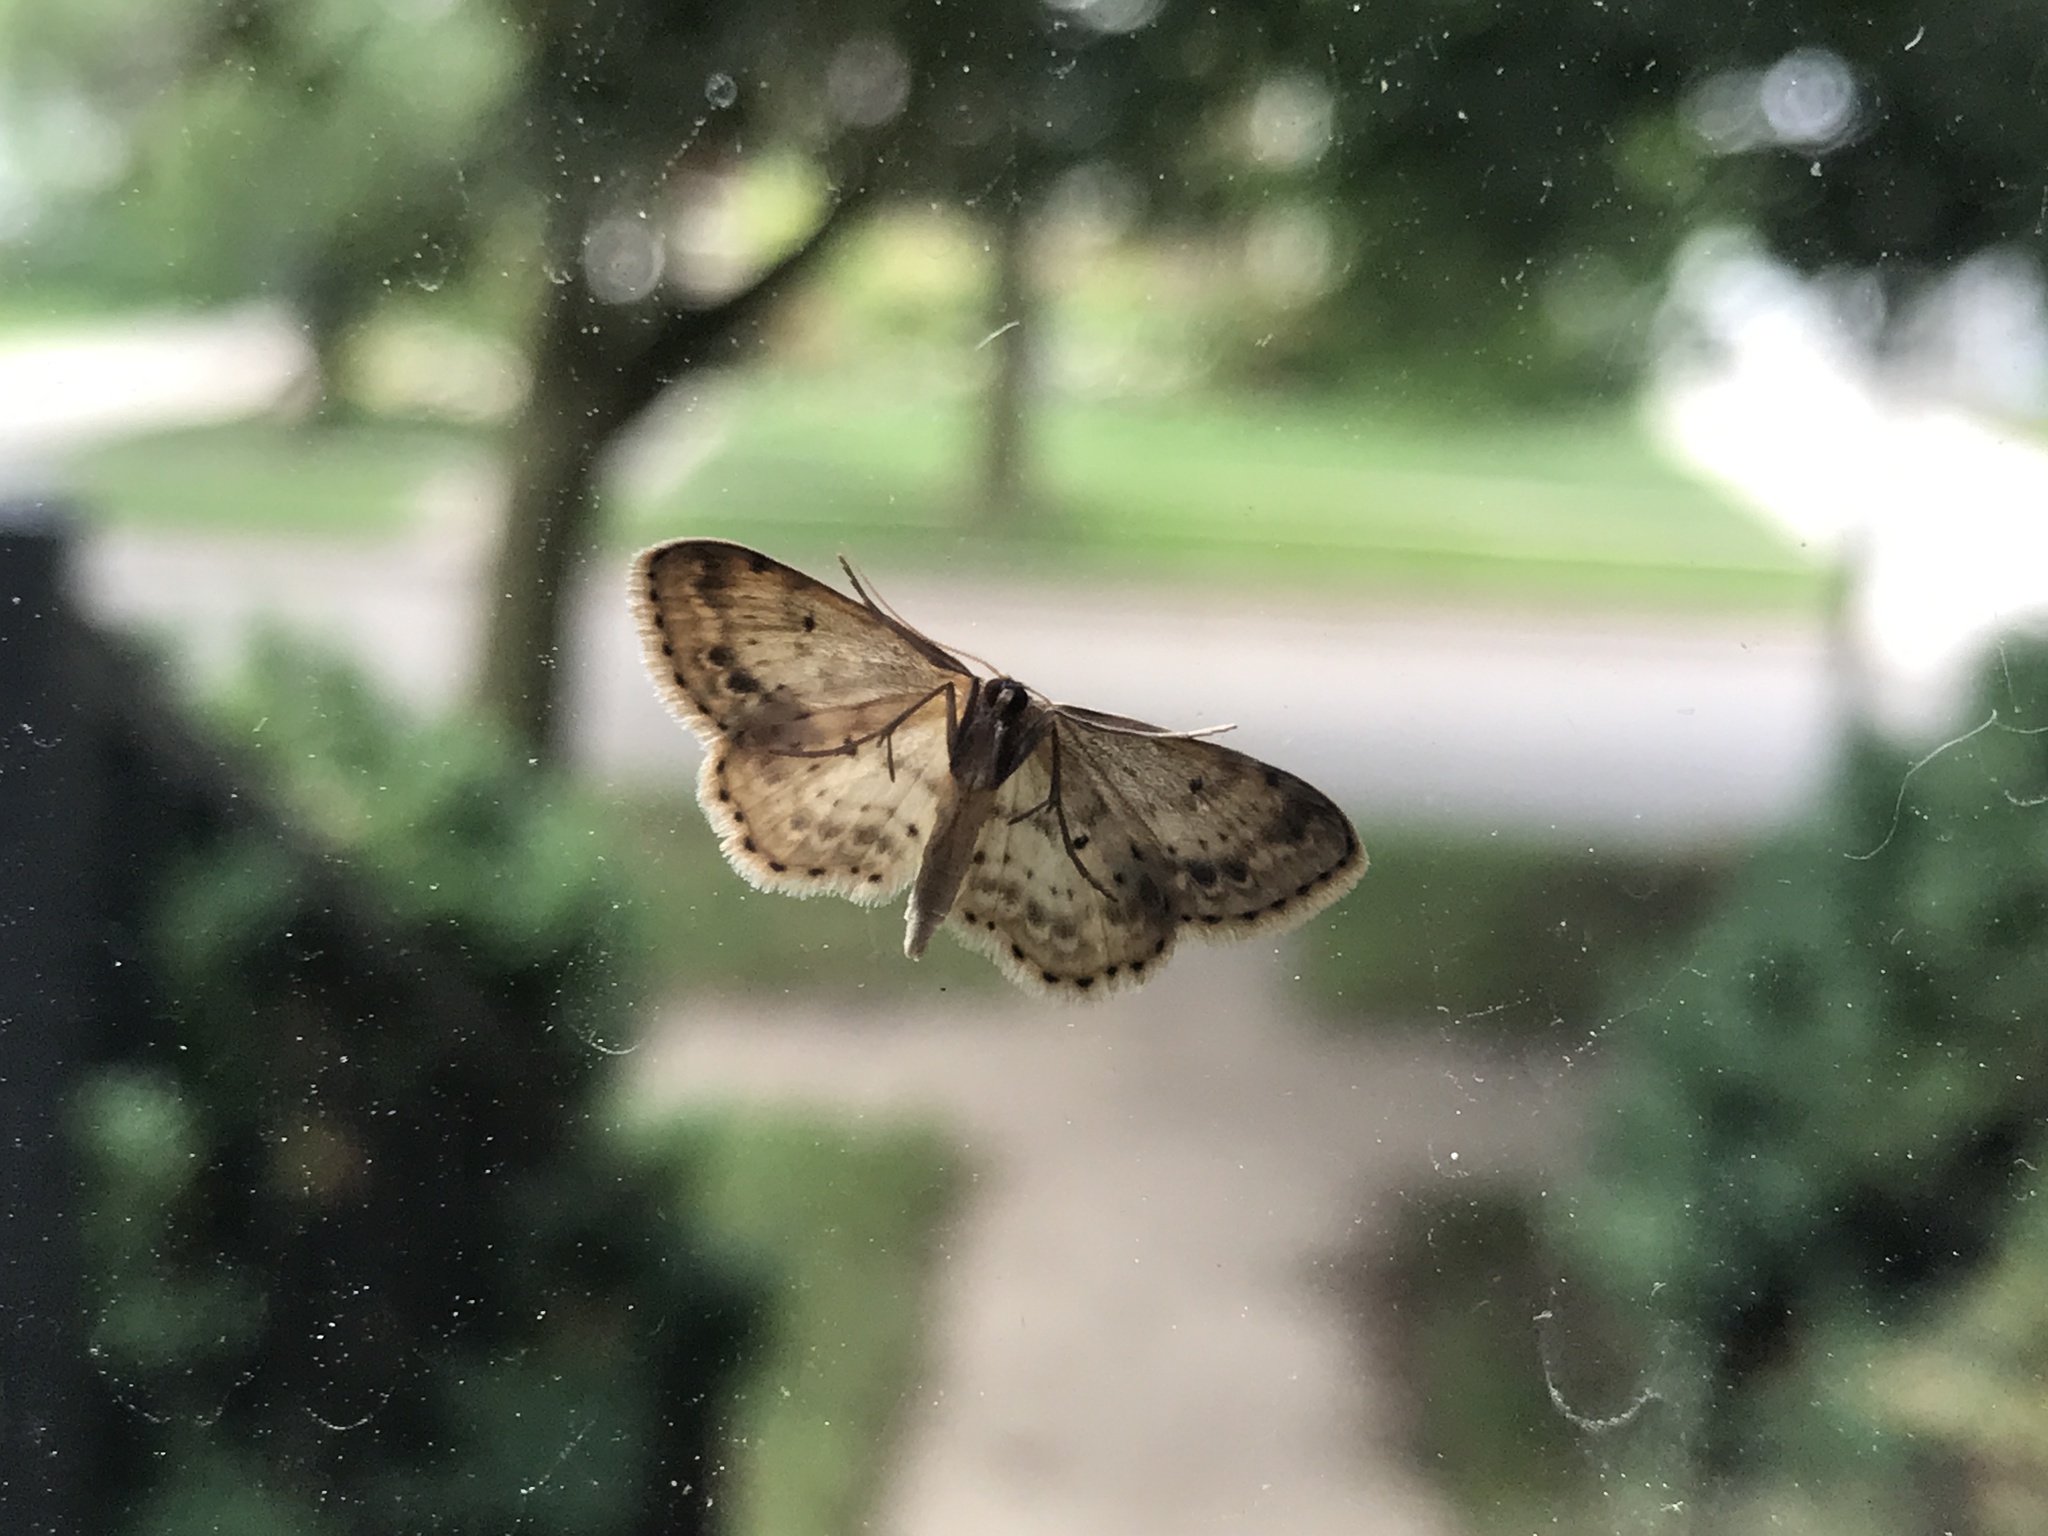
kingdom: Animalia
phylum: Arthropoda
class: Insecta
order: Lepidoptera
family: Geometridae
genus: Idaea
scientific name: Idaea dimidiata
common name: Single-dotted wave
